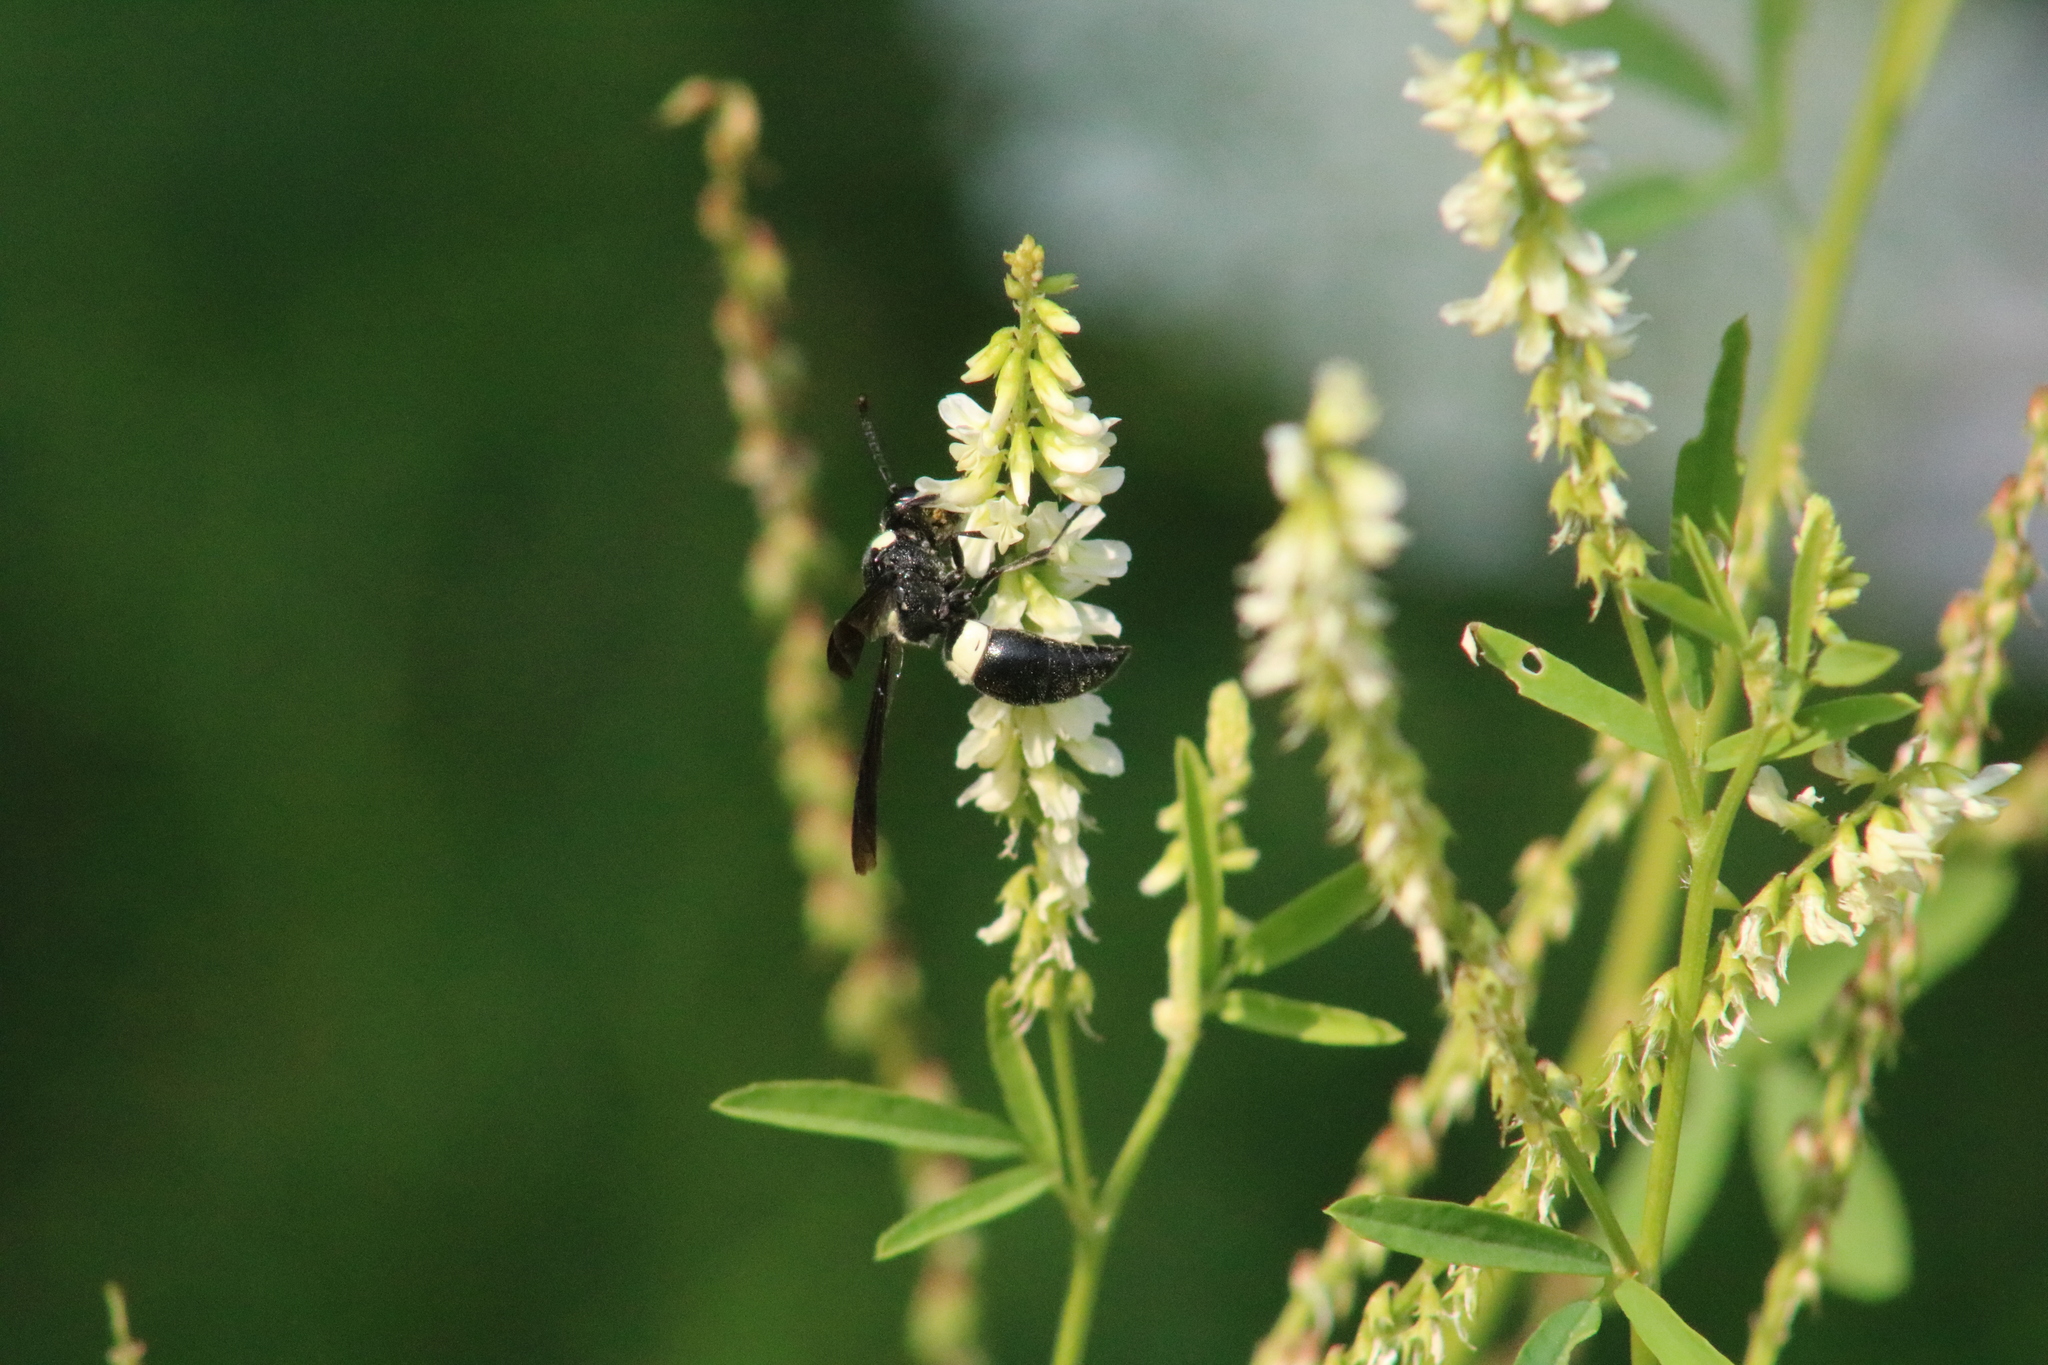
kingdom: Animalia
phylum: Arthropoda
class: Insecta
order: Hymenoptera
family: Eumenidae
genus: Monobia
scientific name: Monobia quadridens
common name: Four-toothed mason wasp
